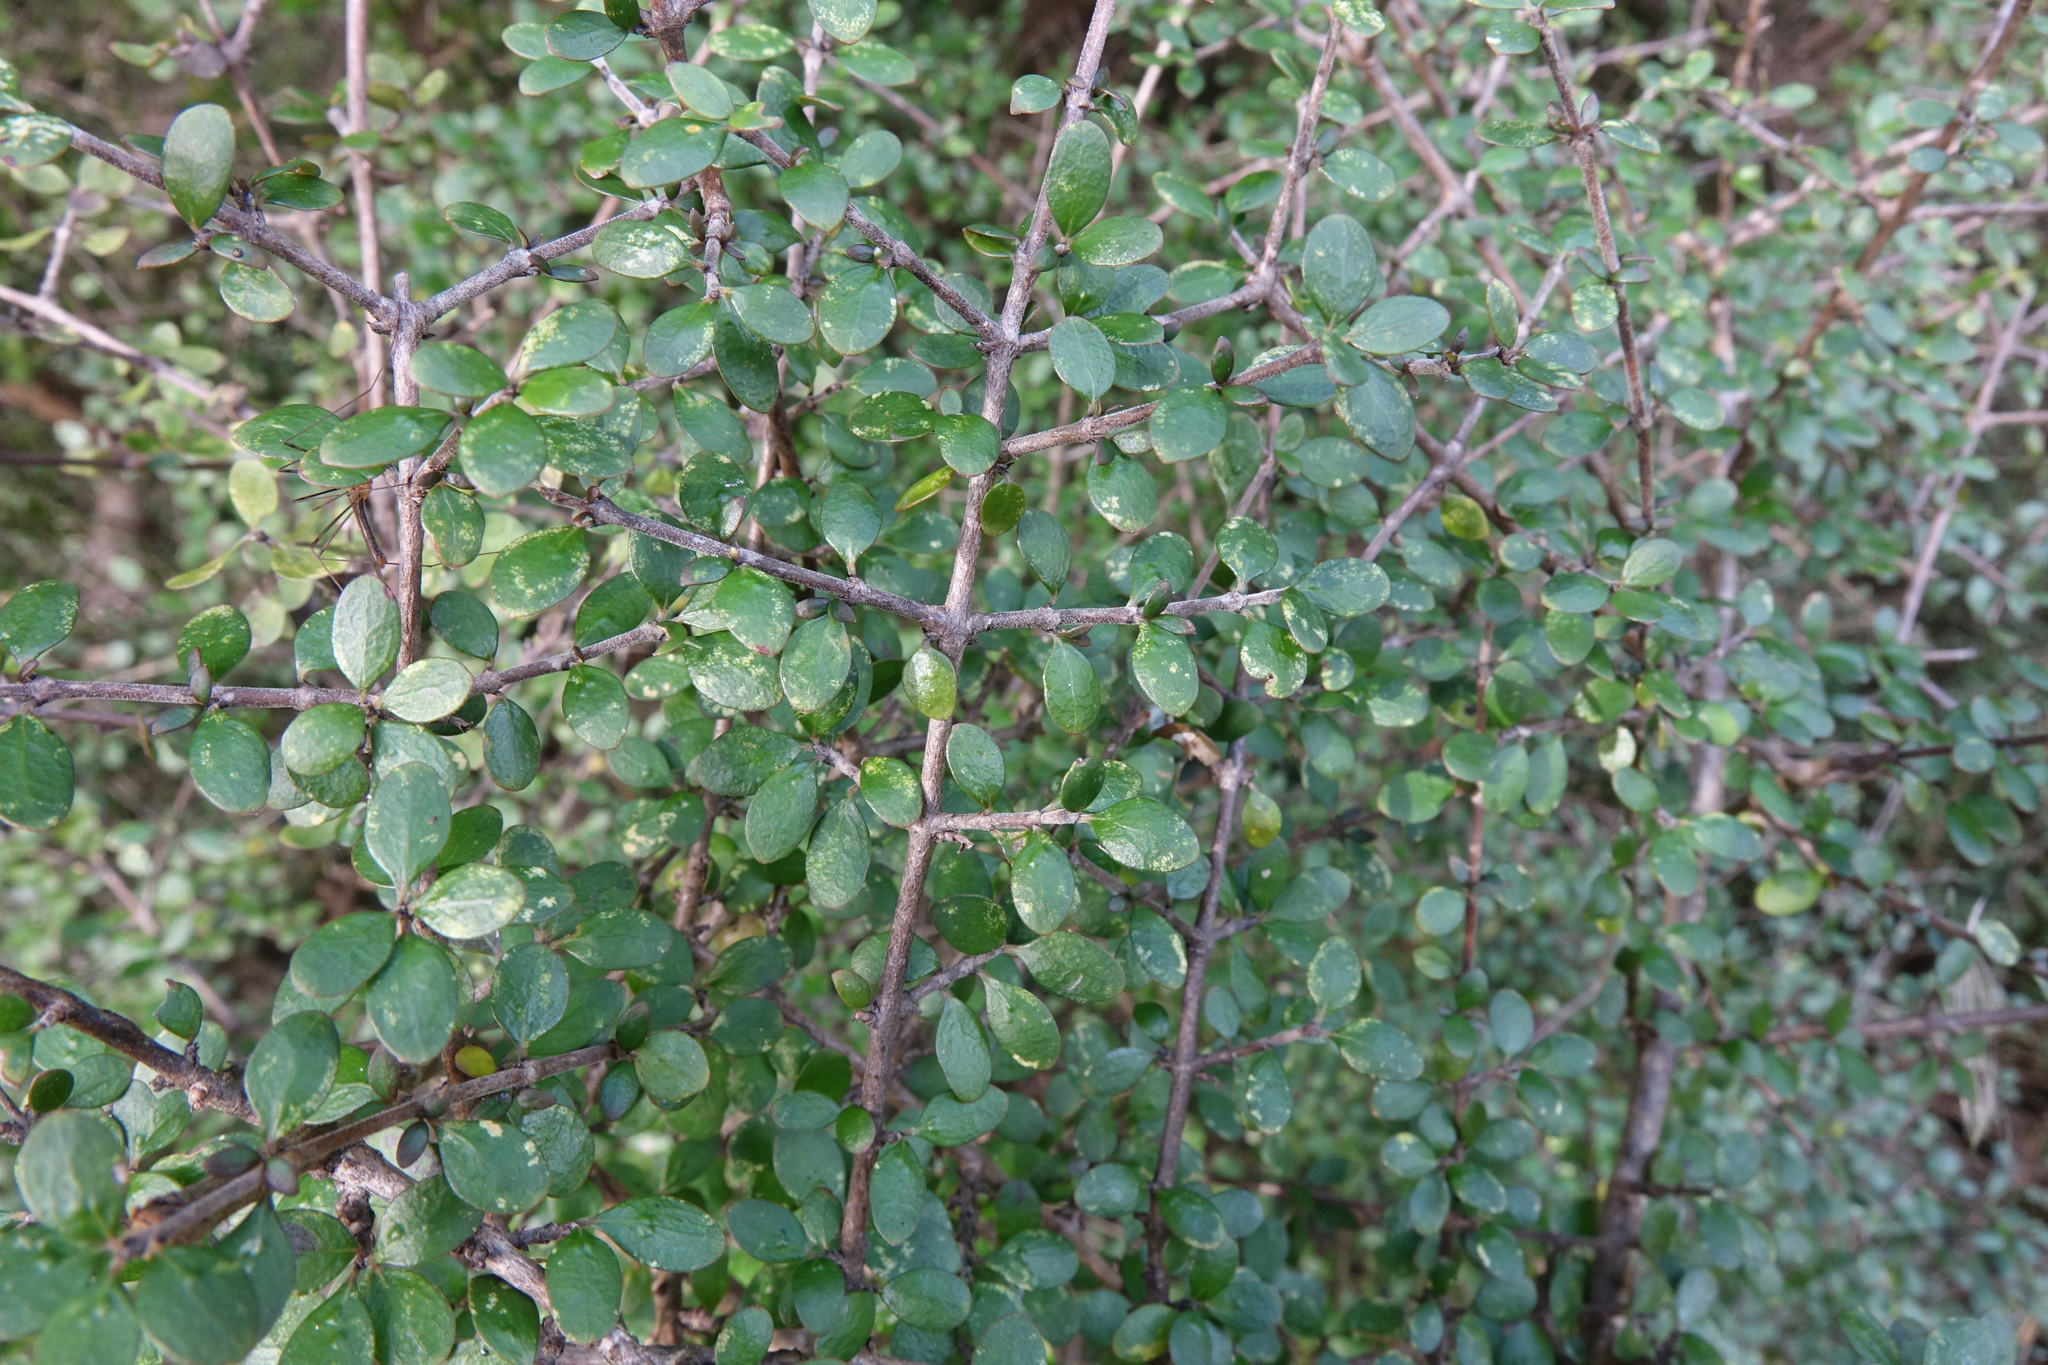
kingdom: Plantae
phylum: Tracheophyta
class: Magnoliopsida
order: Gentianales
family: Rubiaceae
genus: Coprosma
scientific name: Coprosma wallii
